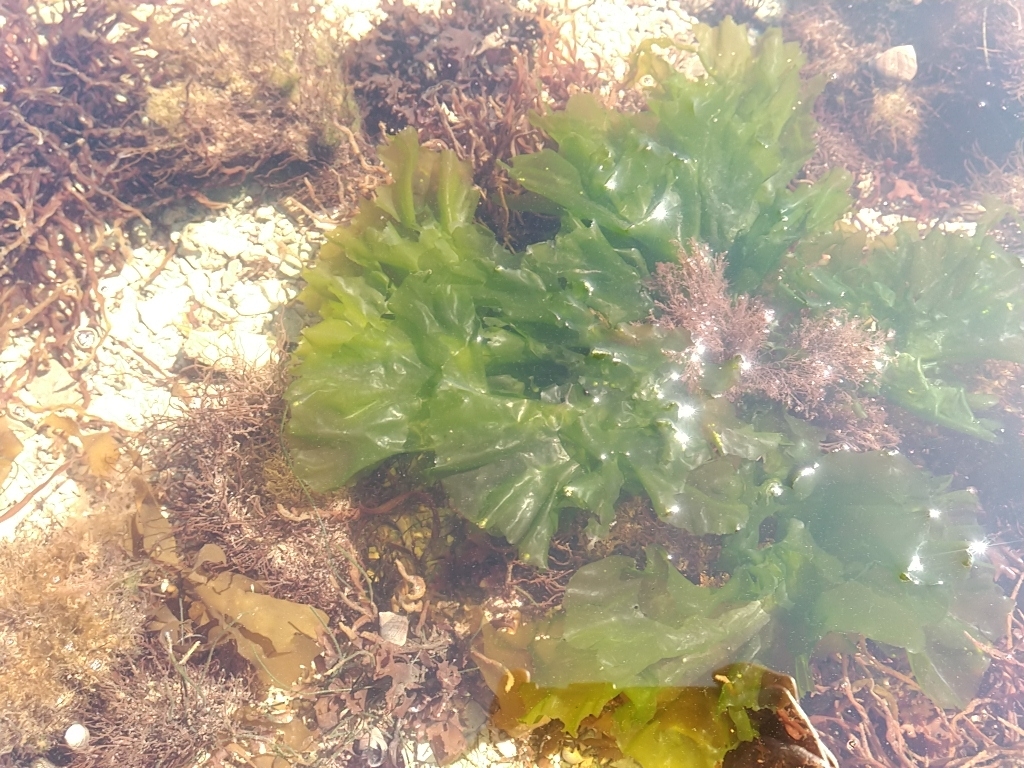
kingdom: Plantae
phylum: Chlorophyta
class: Ulvophyceae
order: Ulvales
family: Ulvaceae
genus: Ulva
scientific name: Ulva lactuca
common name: Sea lettuce
